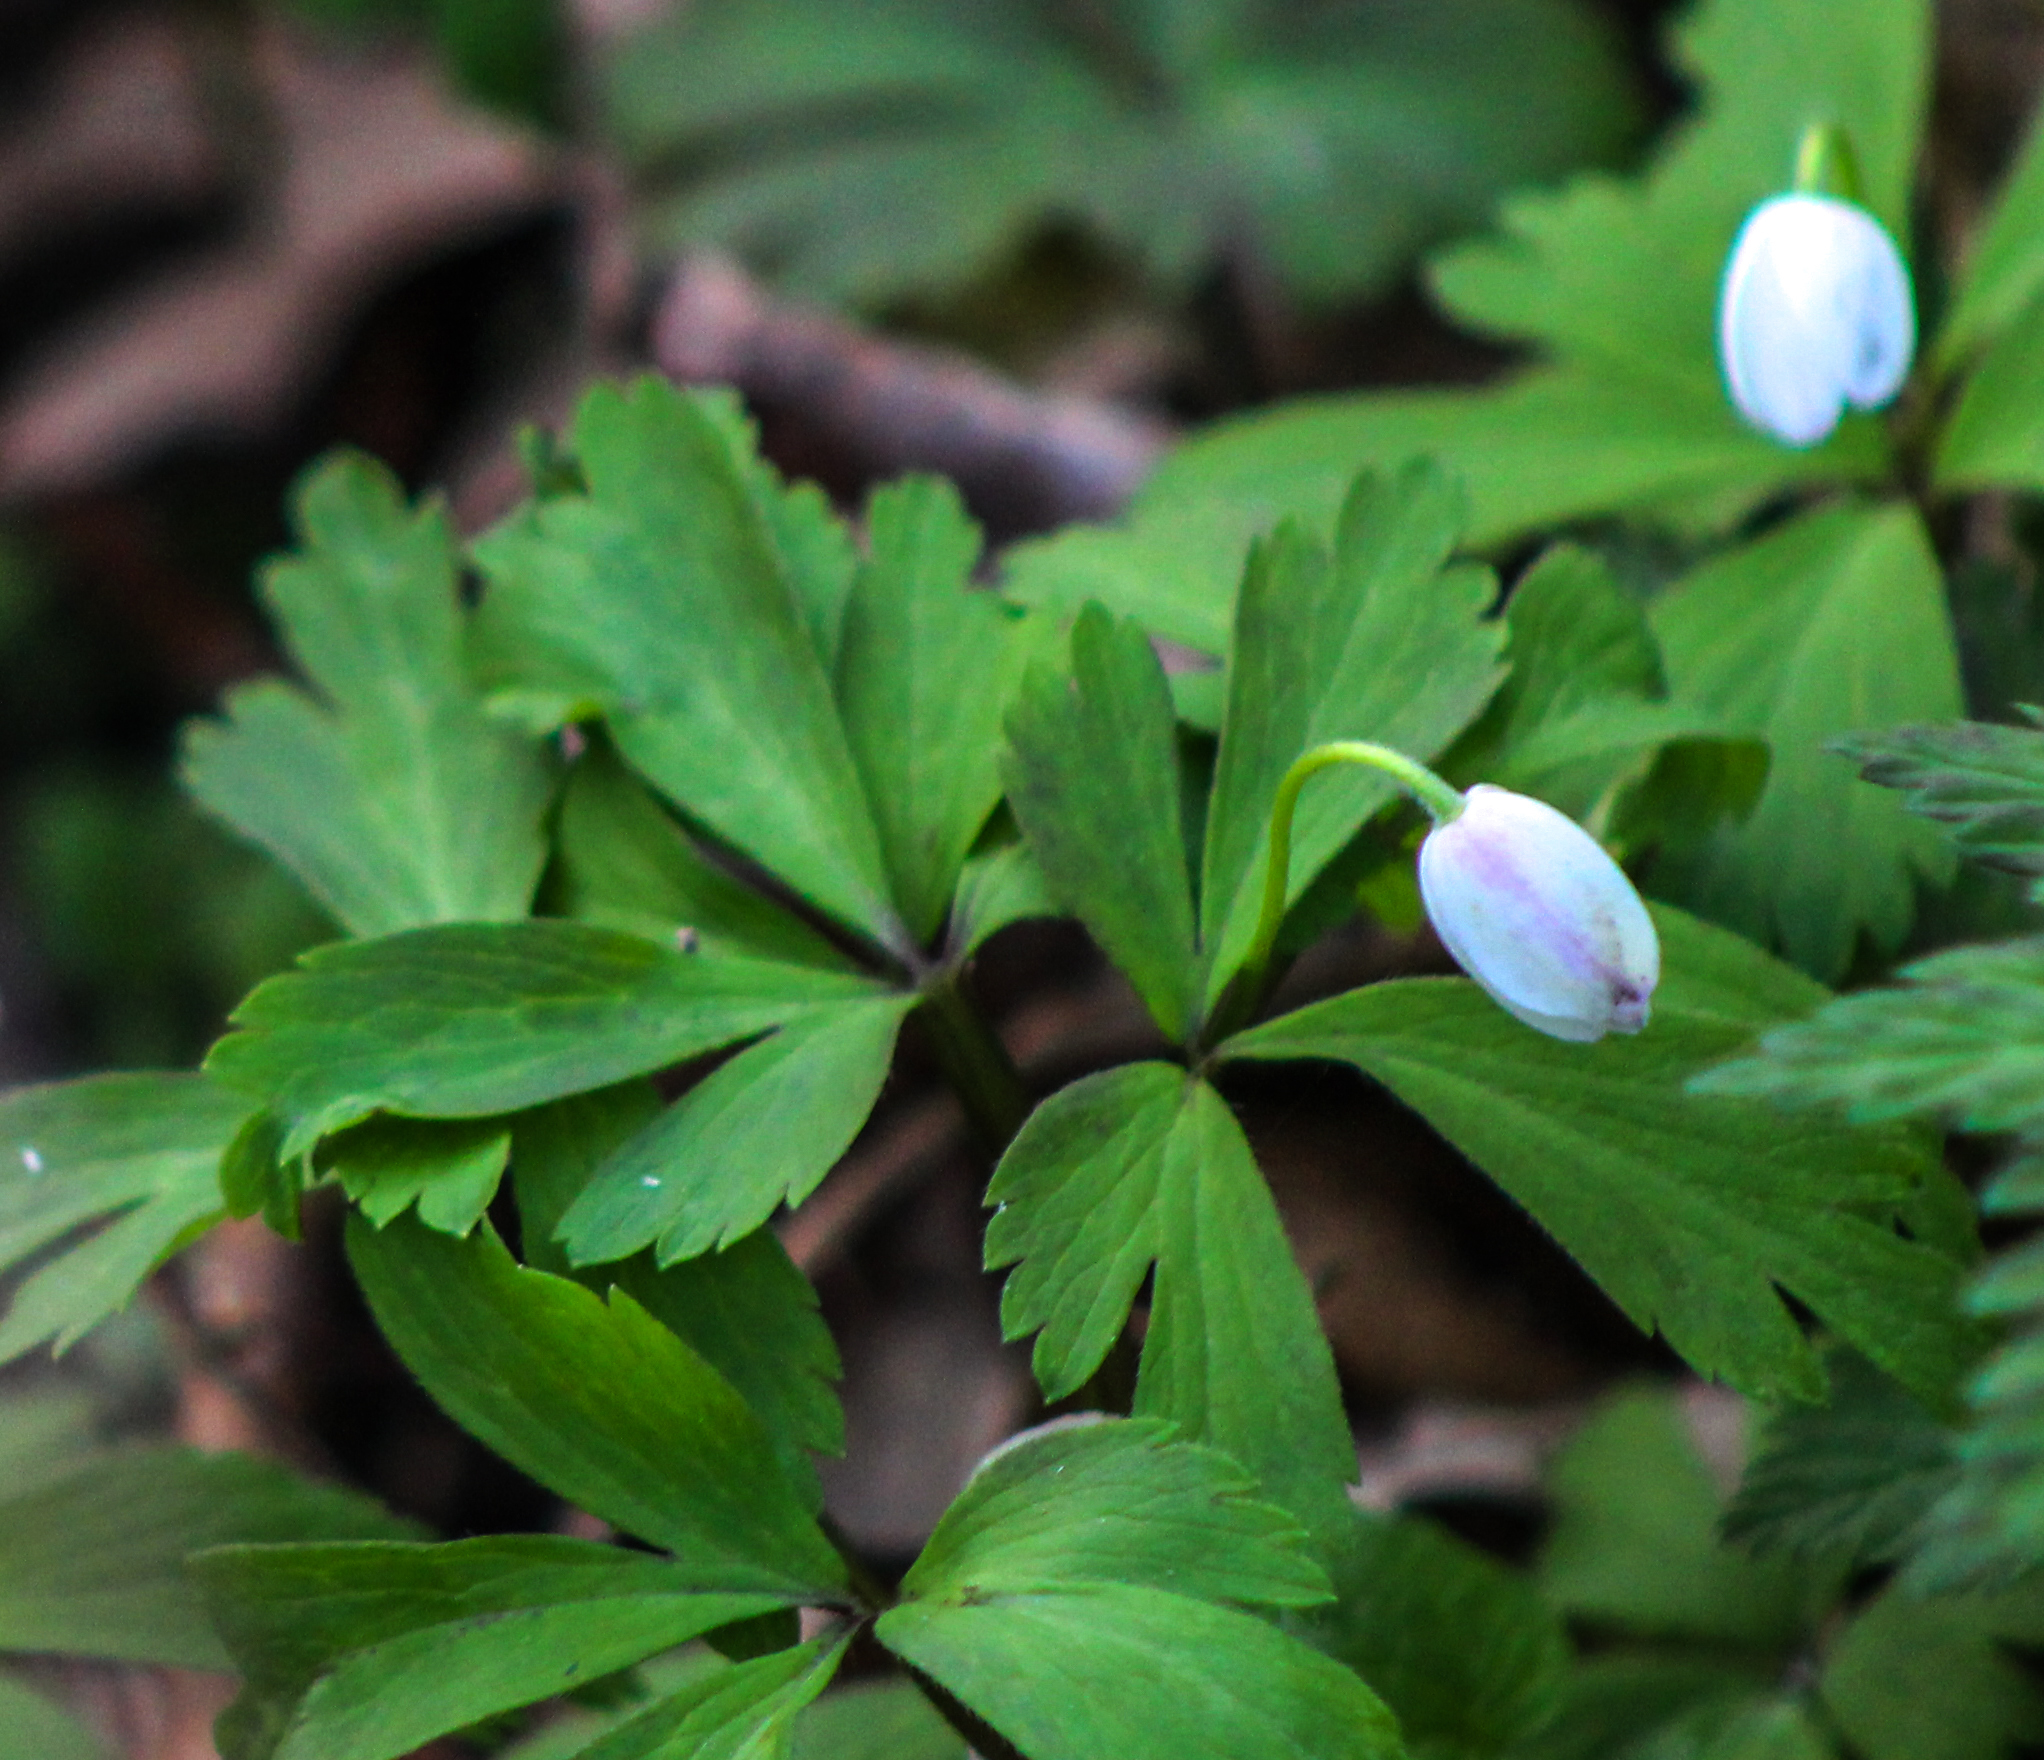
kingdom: Plantae
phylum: Tracheophyta
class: Magnoliopsida
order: Ranunculales
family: Ranunculaceae
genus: Anemone
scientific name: Anemone quinquefolia
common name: Wood anemone
